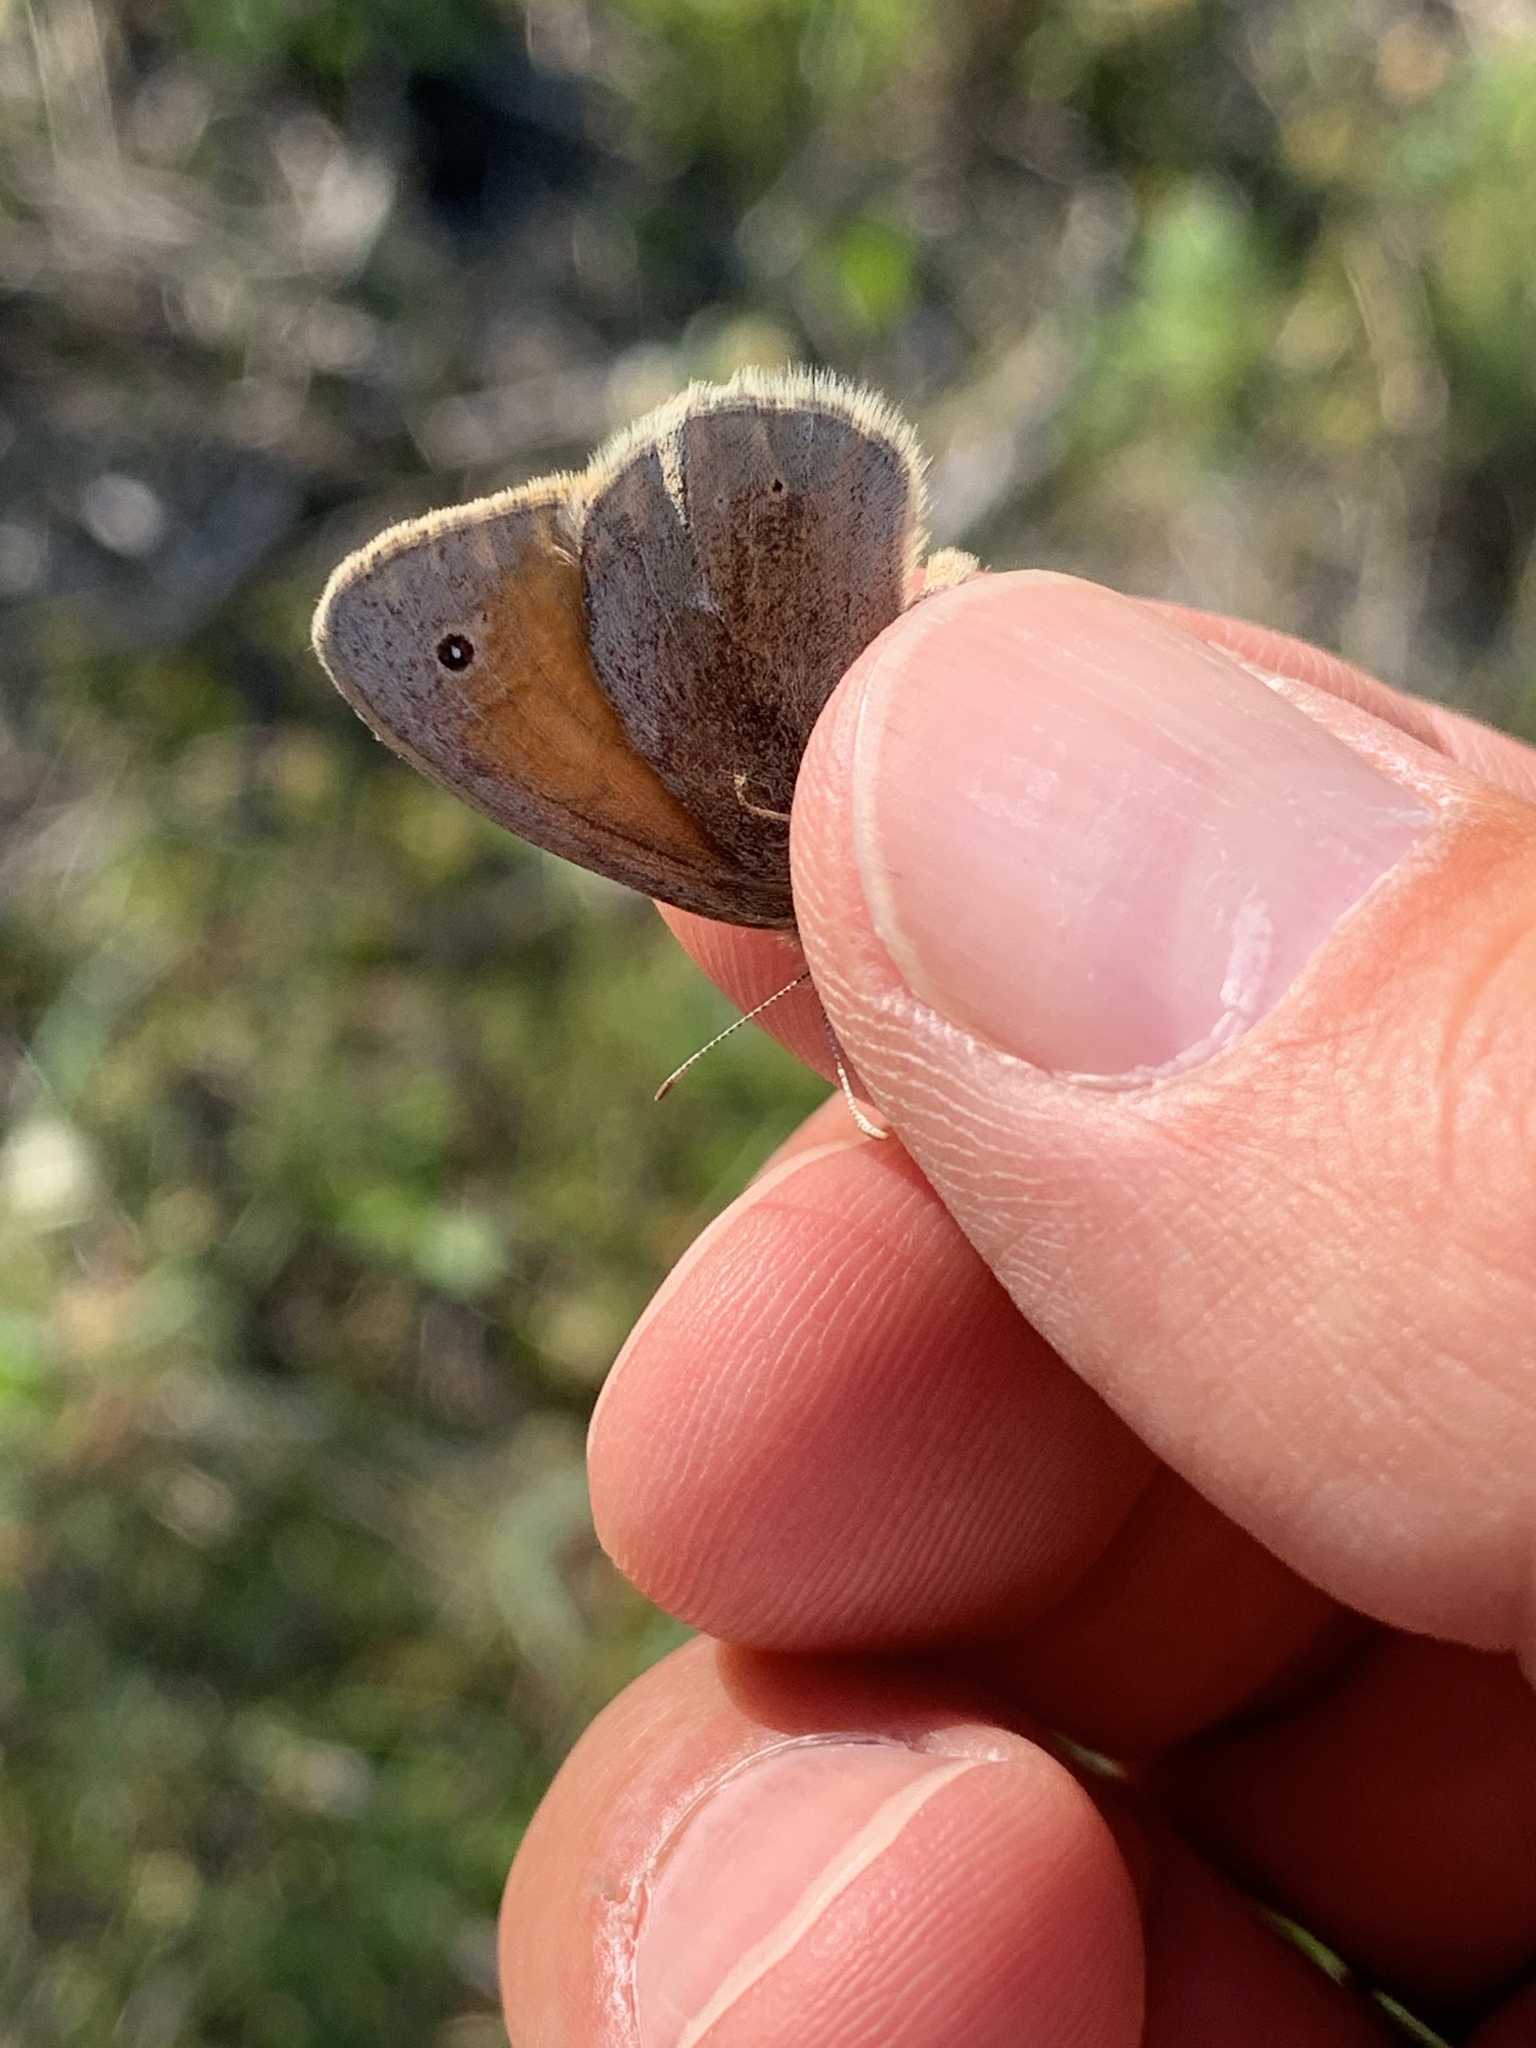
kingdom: Animalia
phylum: Arthropoda
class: Insecta
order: Lepidoptera
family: Nymphalidae
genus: Coenonympha
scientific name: Coenonympha california
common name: Common ringlet
